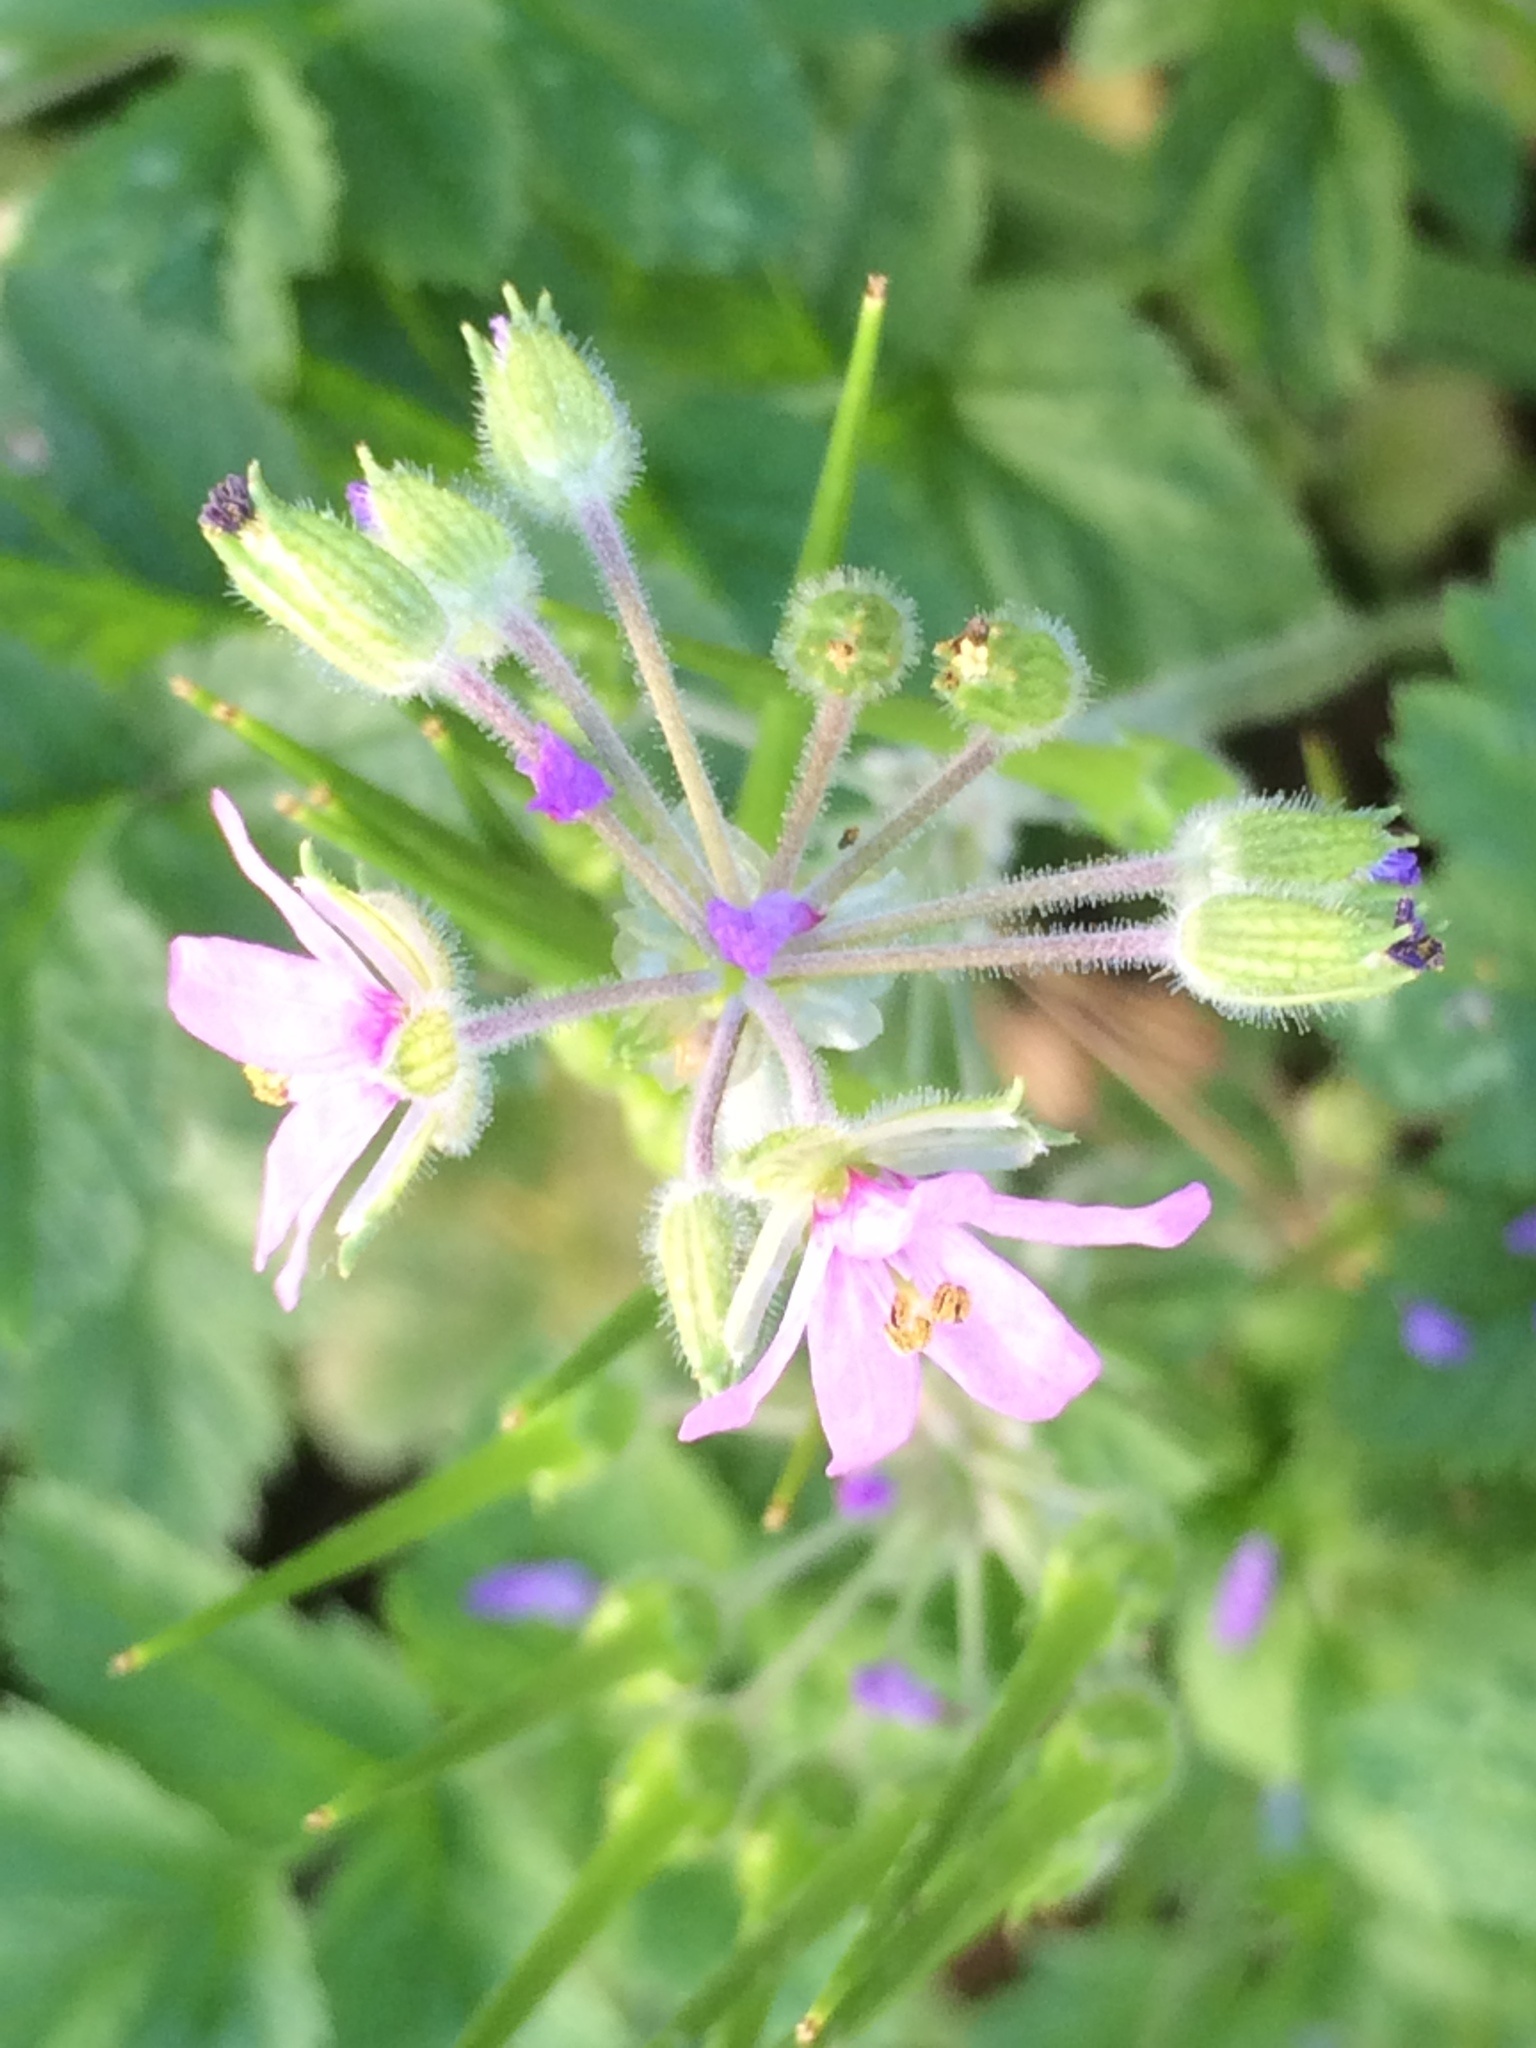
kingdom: Plantae
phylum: Tracheophyta
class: Magnoliopsida
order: Geraniales
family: Geraniaceae
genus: Erodium
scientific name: Erodium moschatum
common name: Musk stork's-bill
